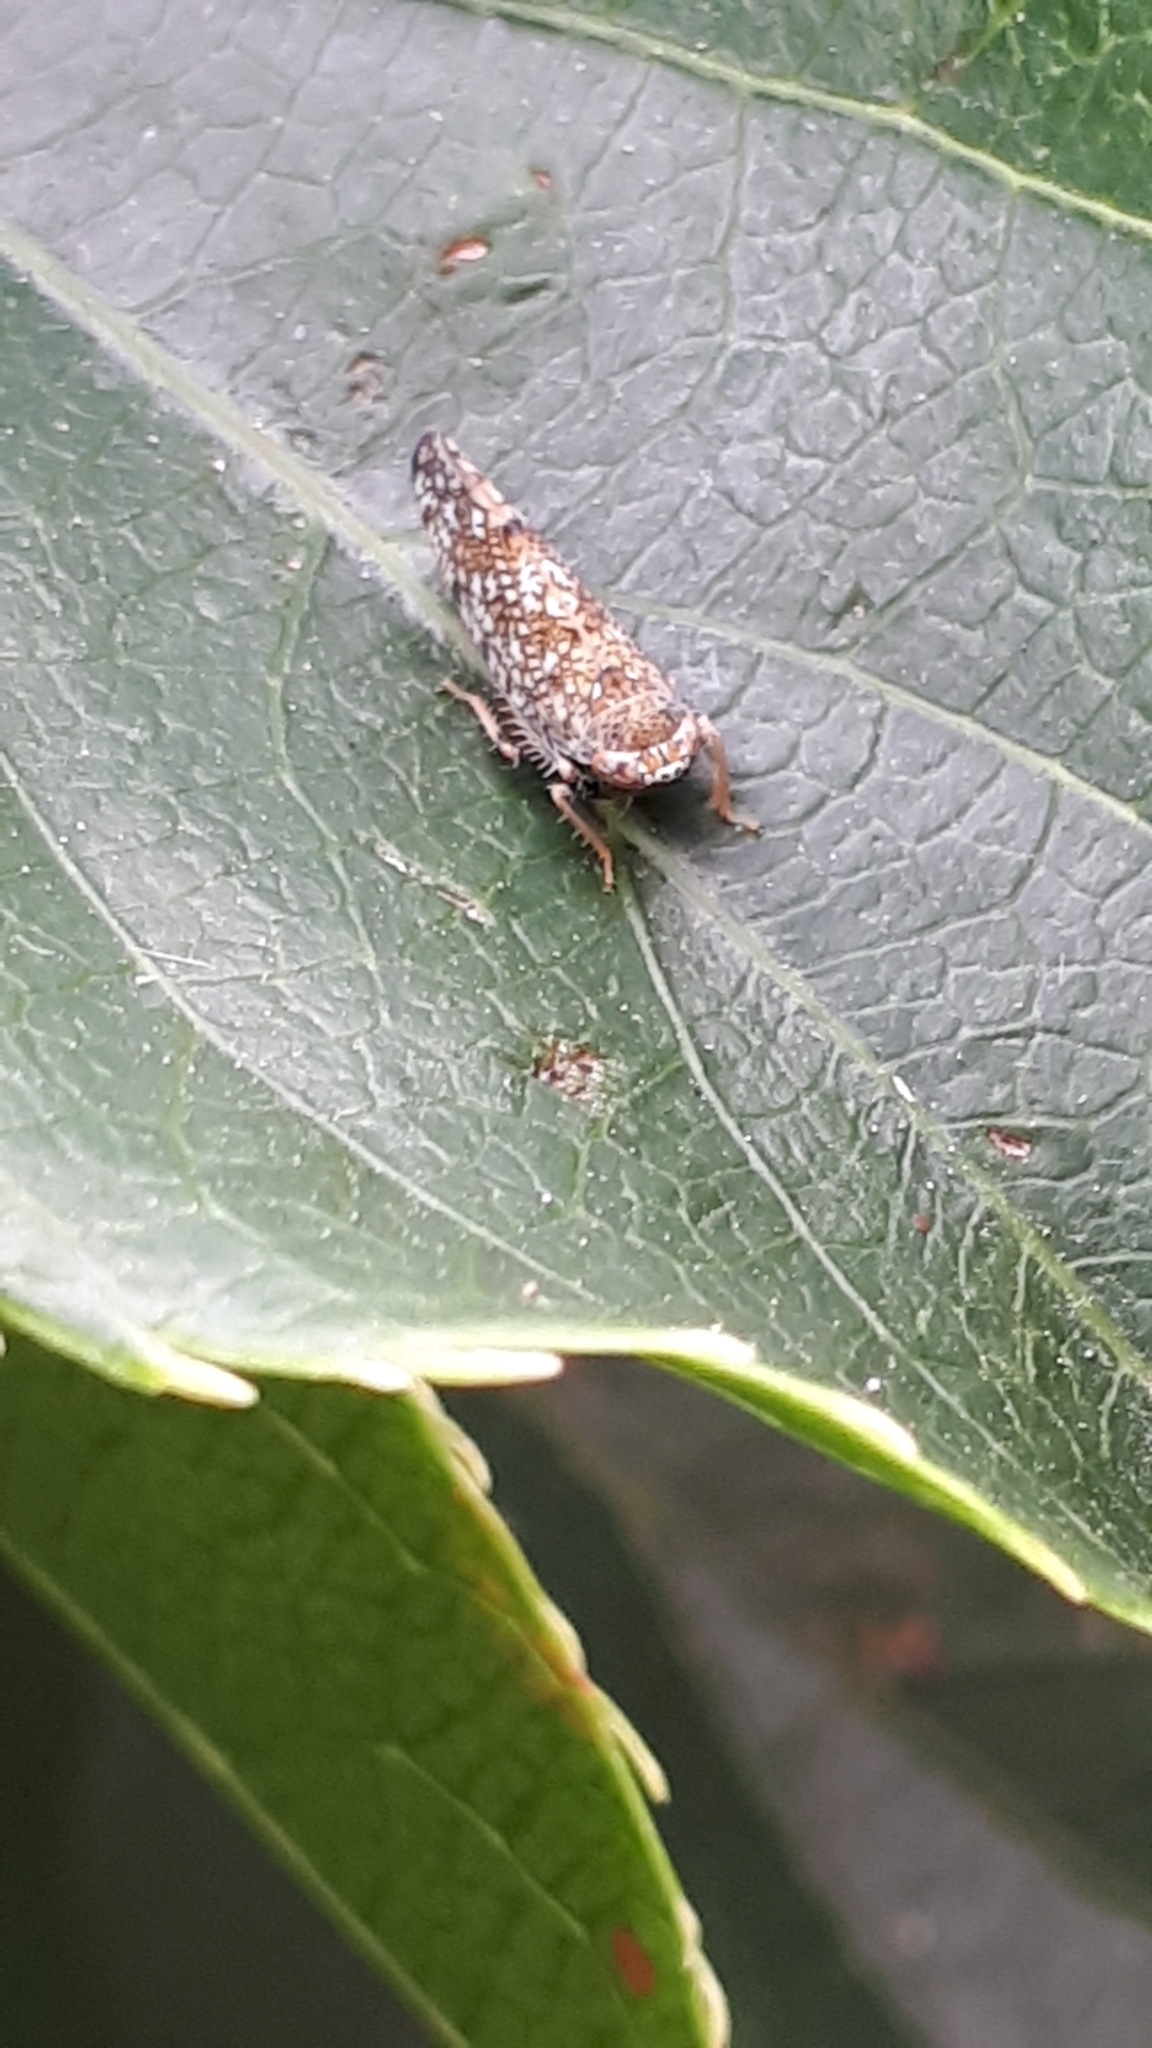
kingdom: Animalia
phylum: Arthropoda
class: Insecta
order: Hemiptera
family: Cicadellidae
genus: Orientus
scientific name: Orientus ishidae
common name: Japanese leafhopper
